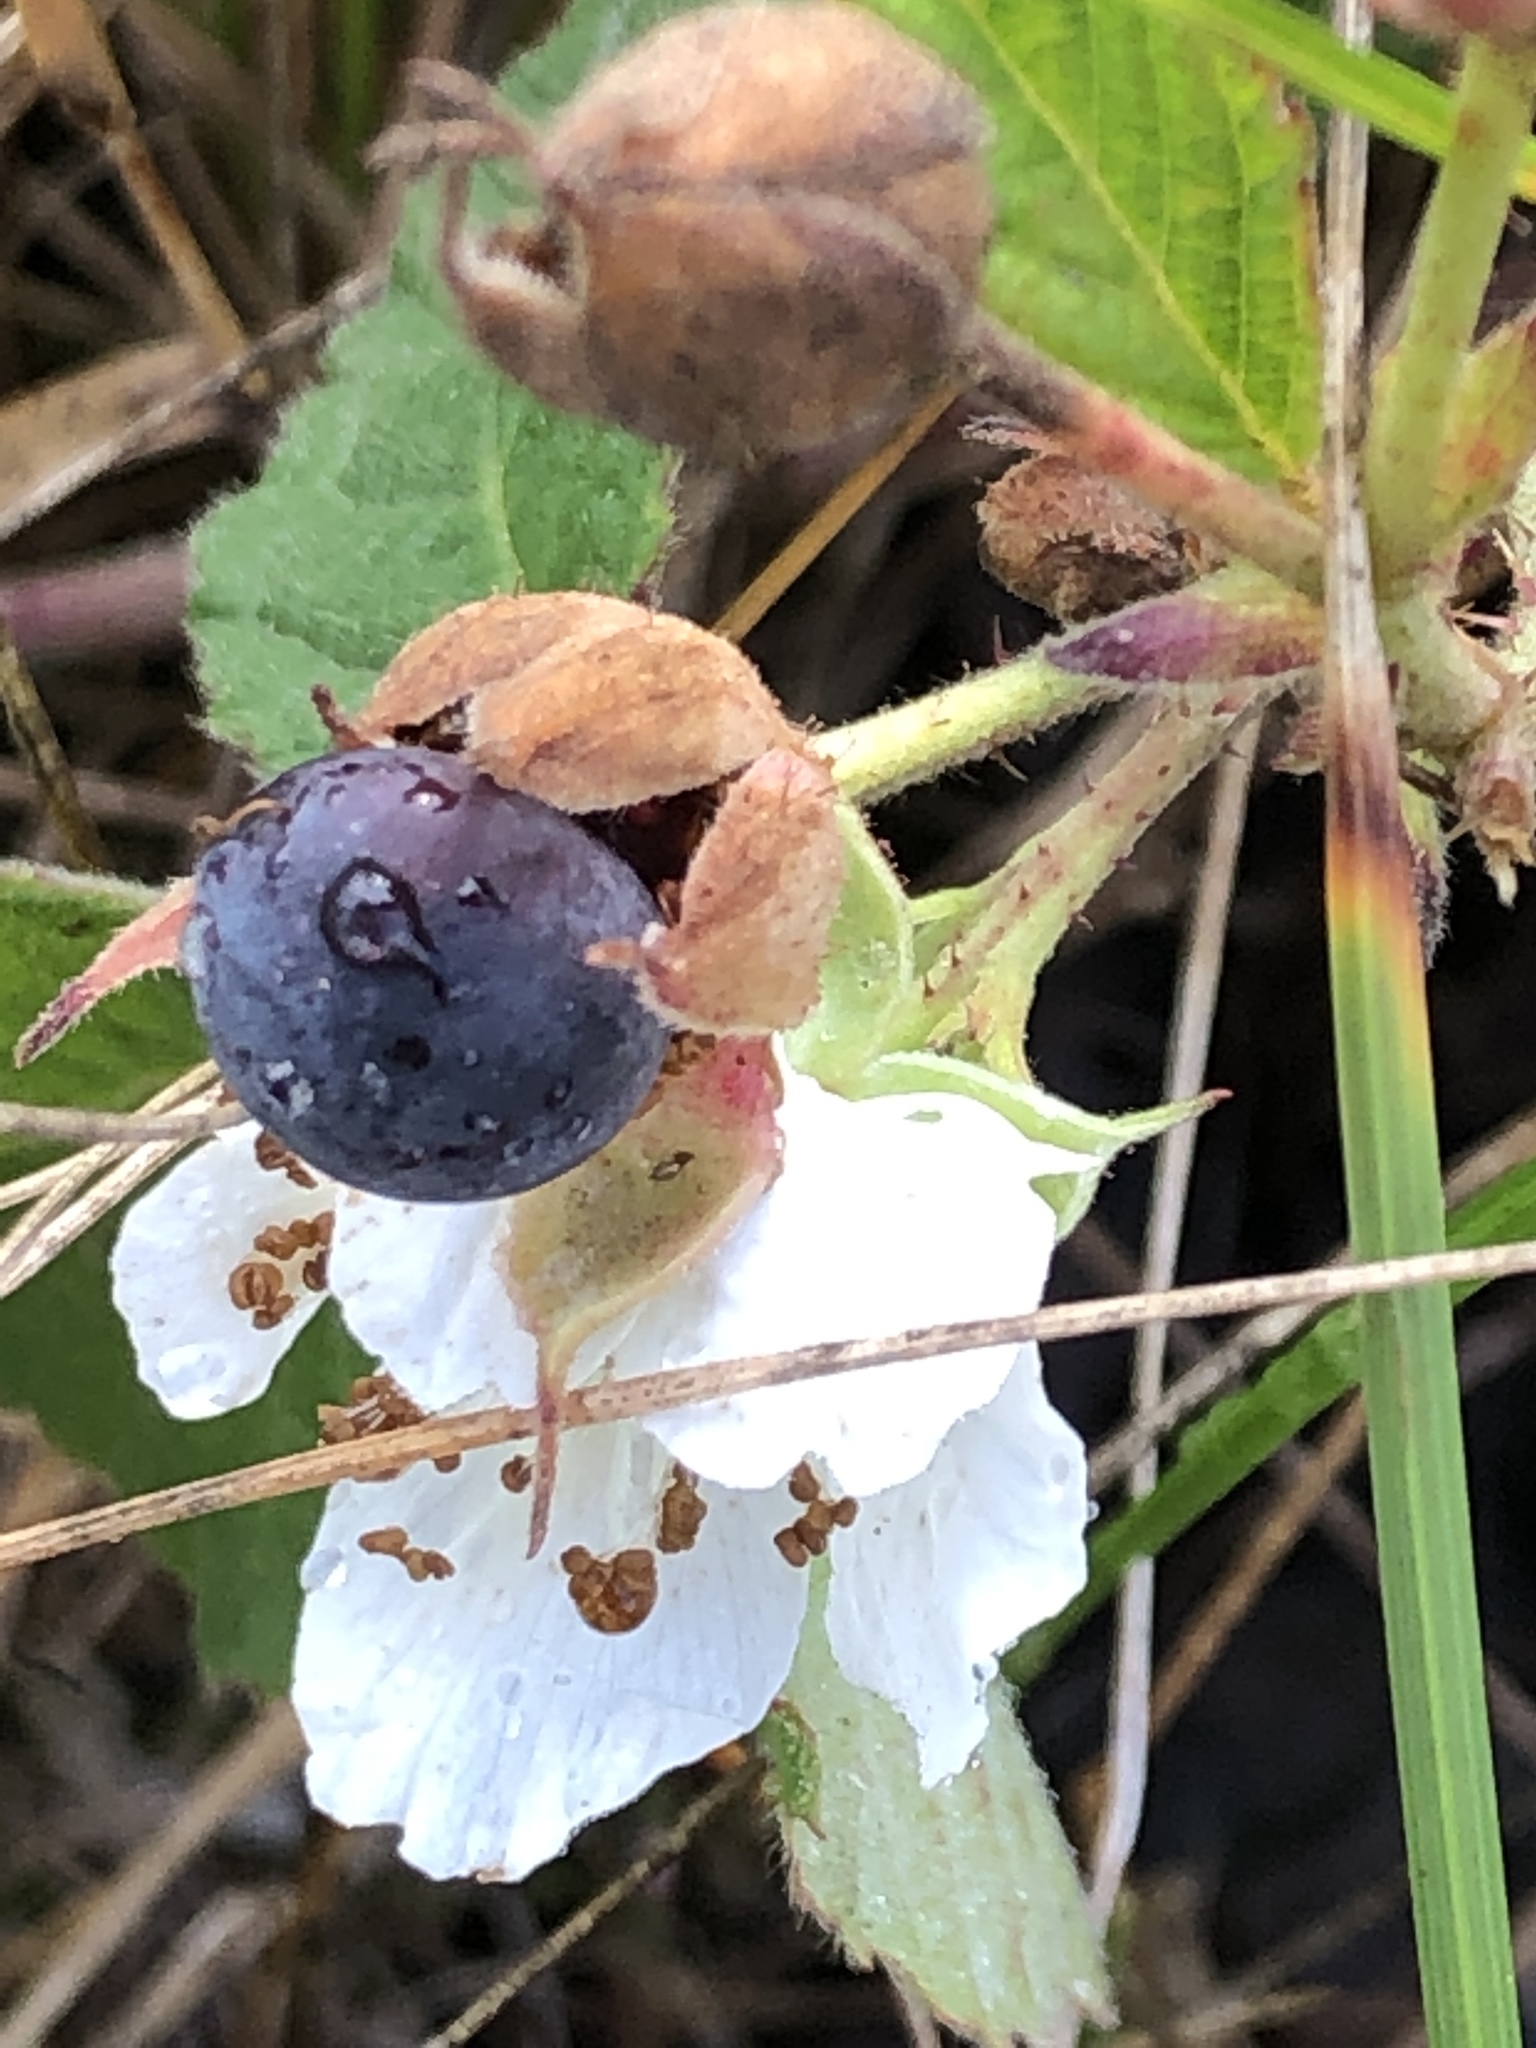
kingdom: Plantae
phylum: Tracheophyta
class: Magnoliopsida
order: Rosales
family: Rosaceae
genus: Rubus
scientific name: Rubus caesius
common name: Dewberry
